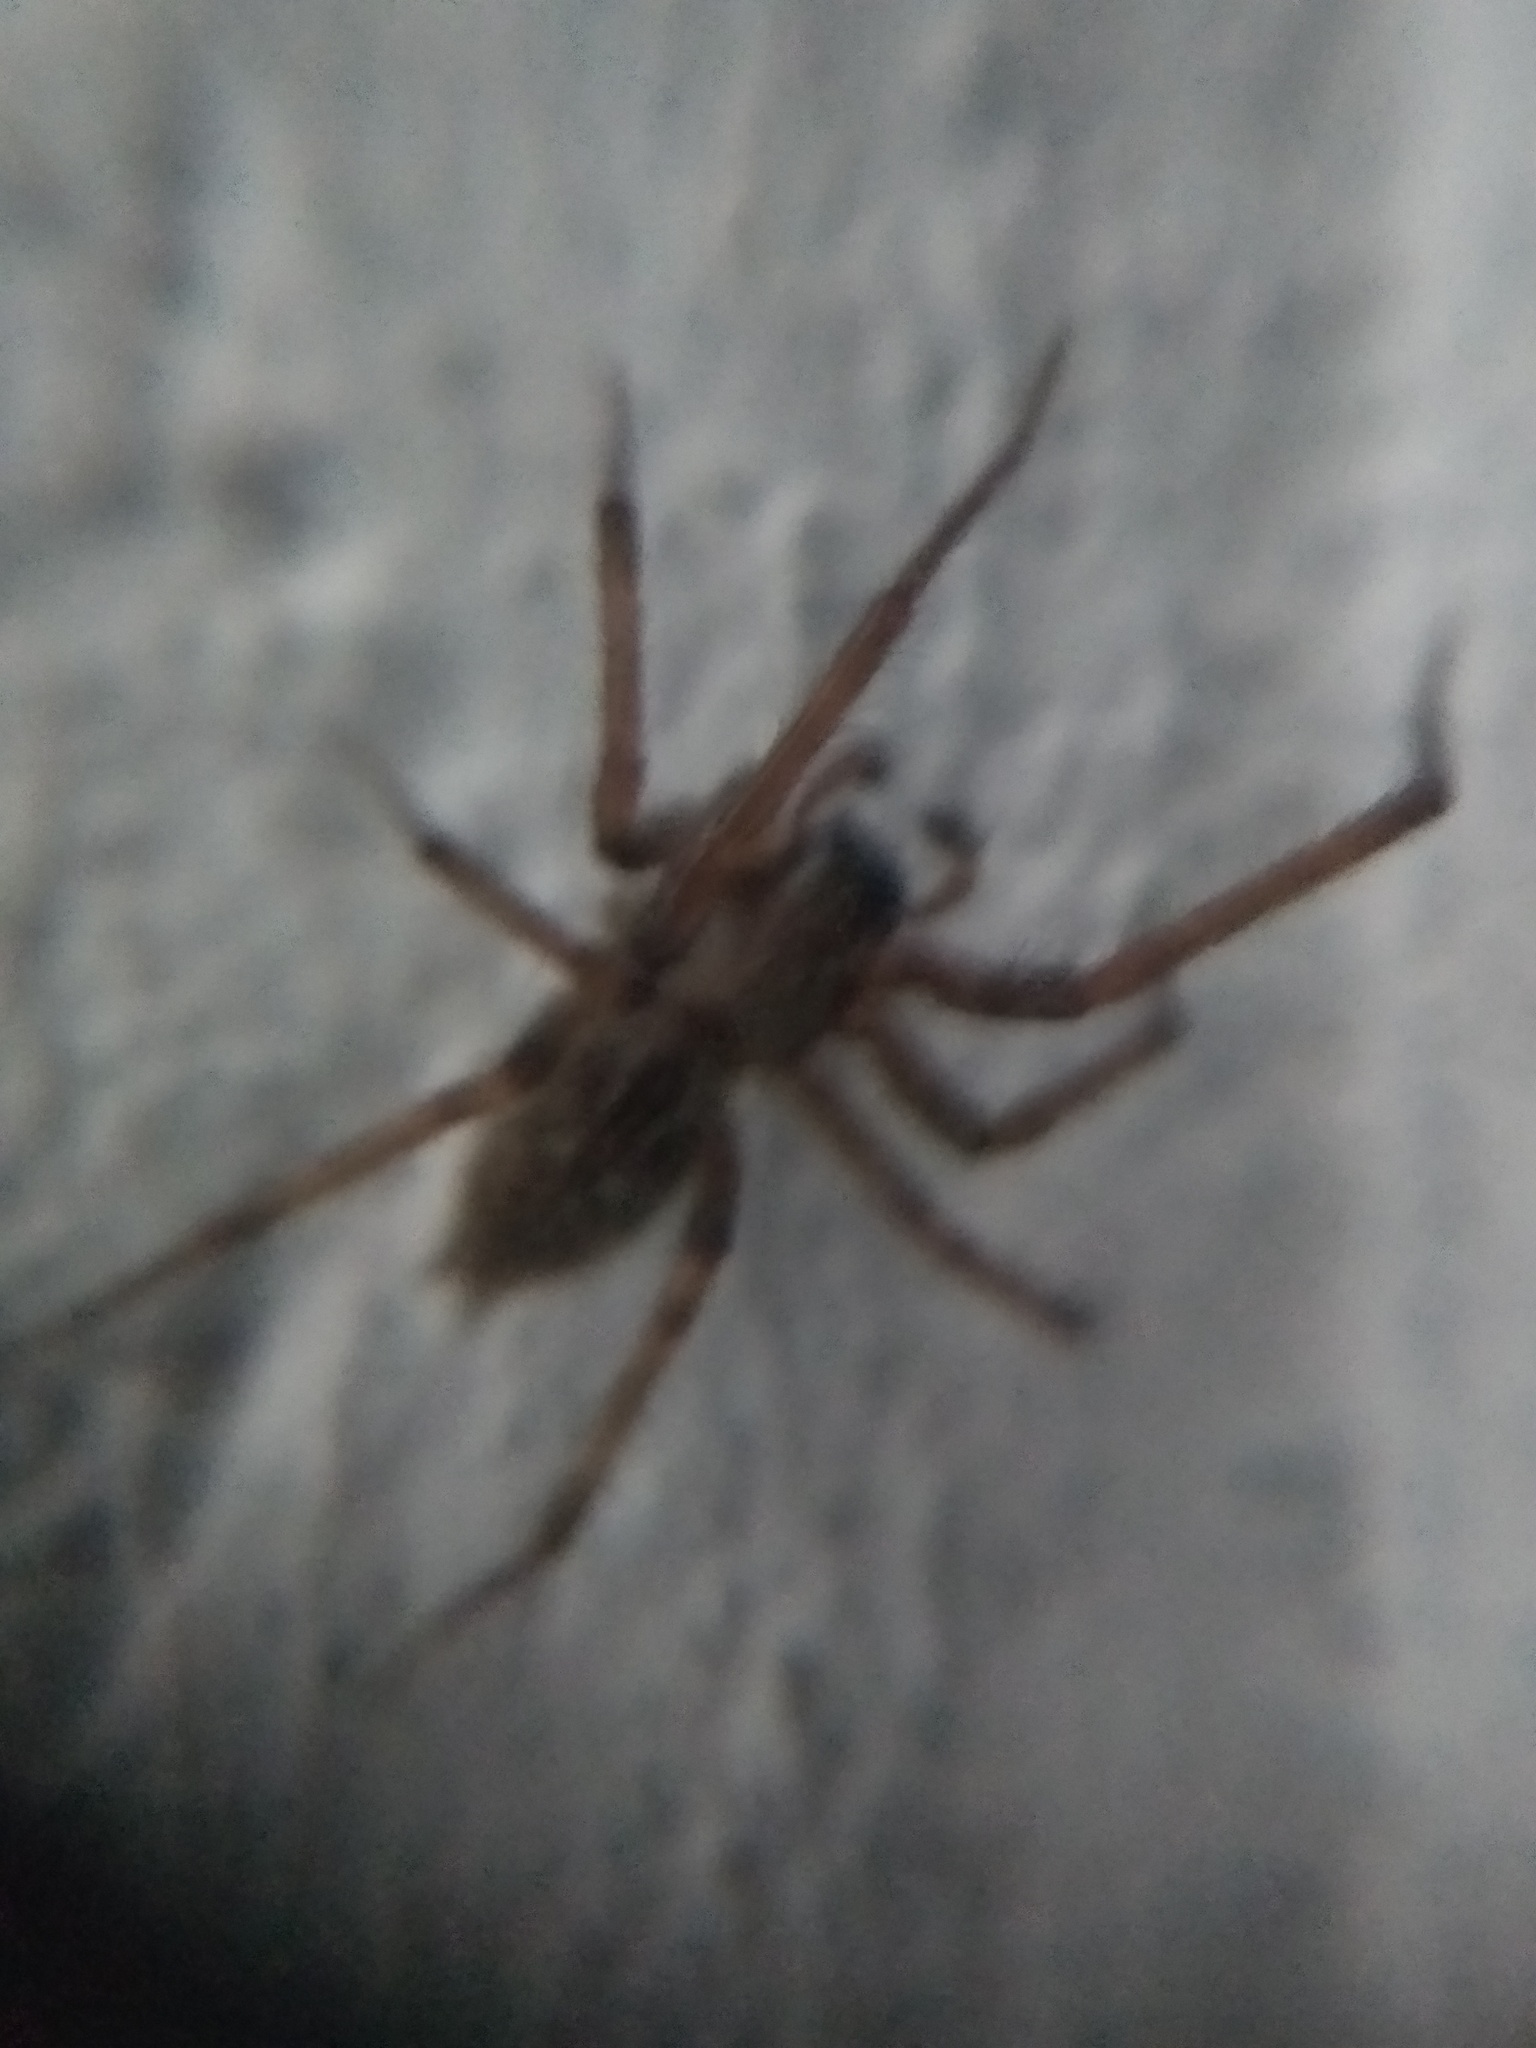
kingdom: Animalia
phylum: Arthropoda
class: Arachnida
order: Araneae
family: Desidae
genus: Badumna
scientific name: Badumna longinqua
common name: Gray house spider
